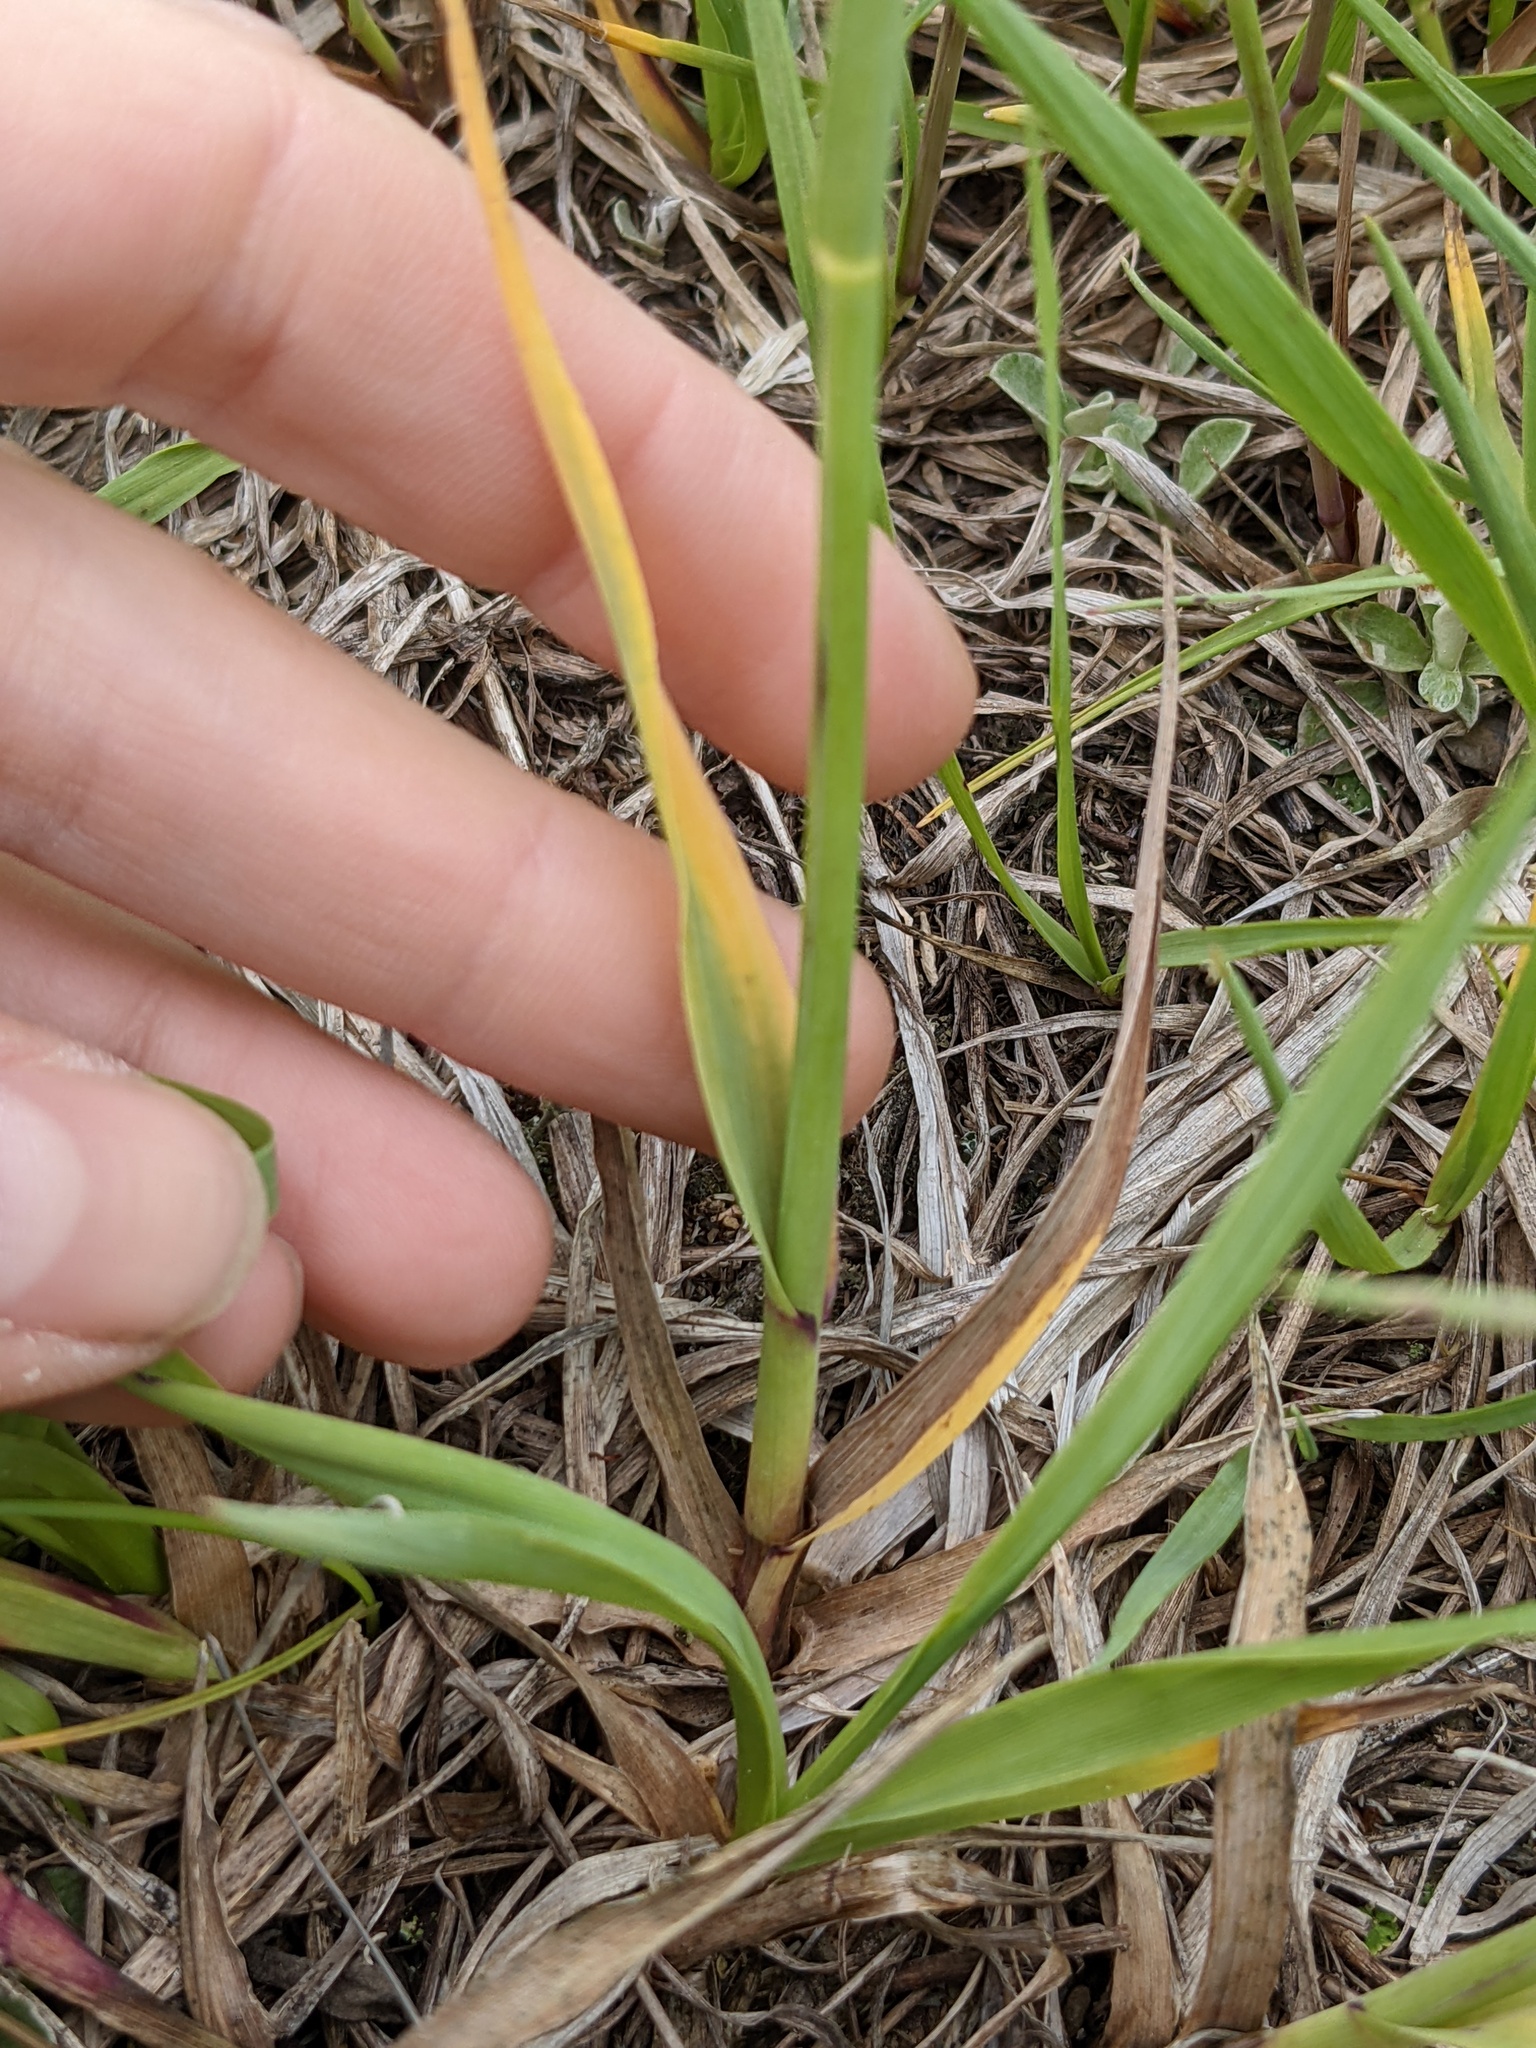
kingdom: Plantae
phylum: Tracheophyta
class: Liliopsida
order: Poales
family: Poaceae
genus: Briza
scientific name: Briza media
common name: Quaking grass
